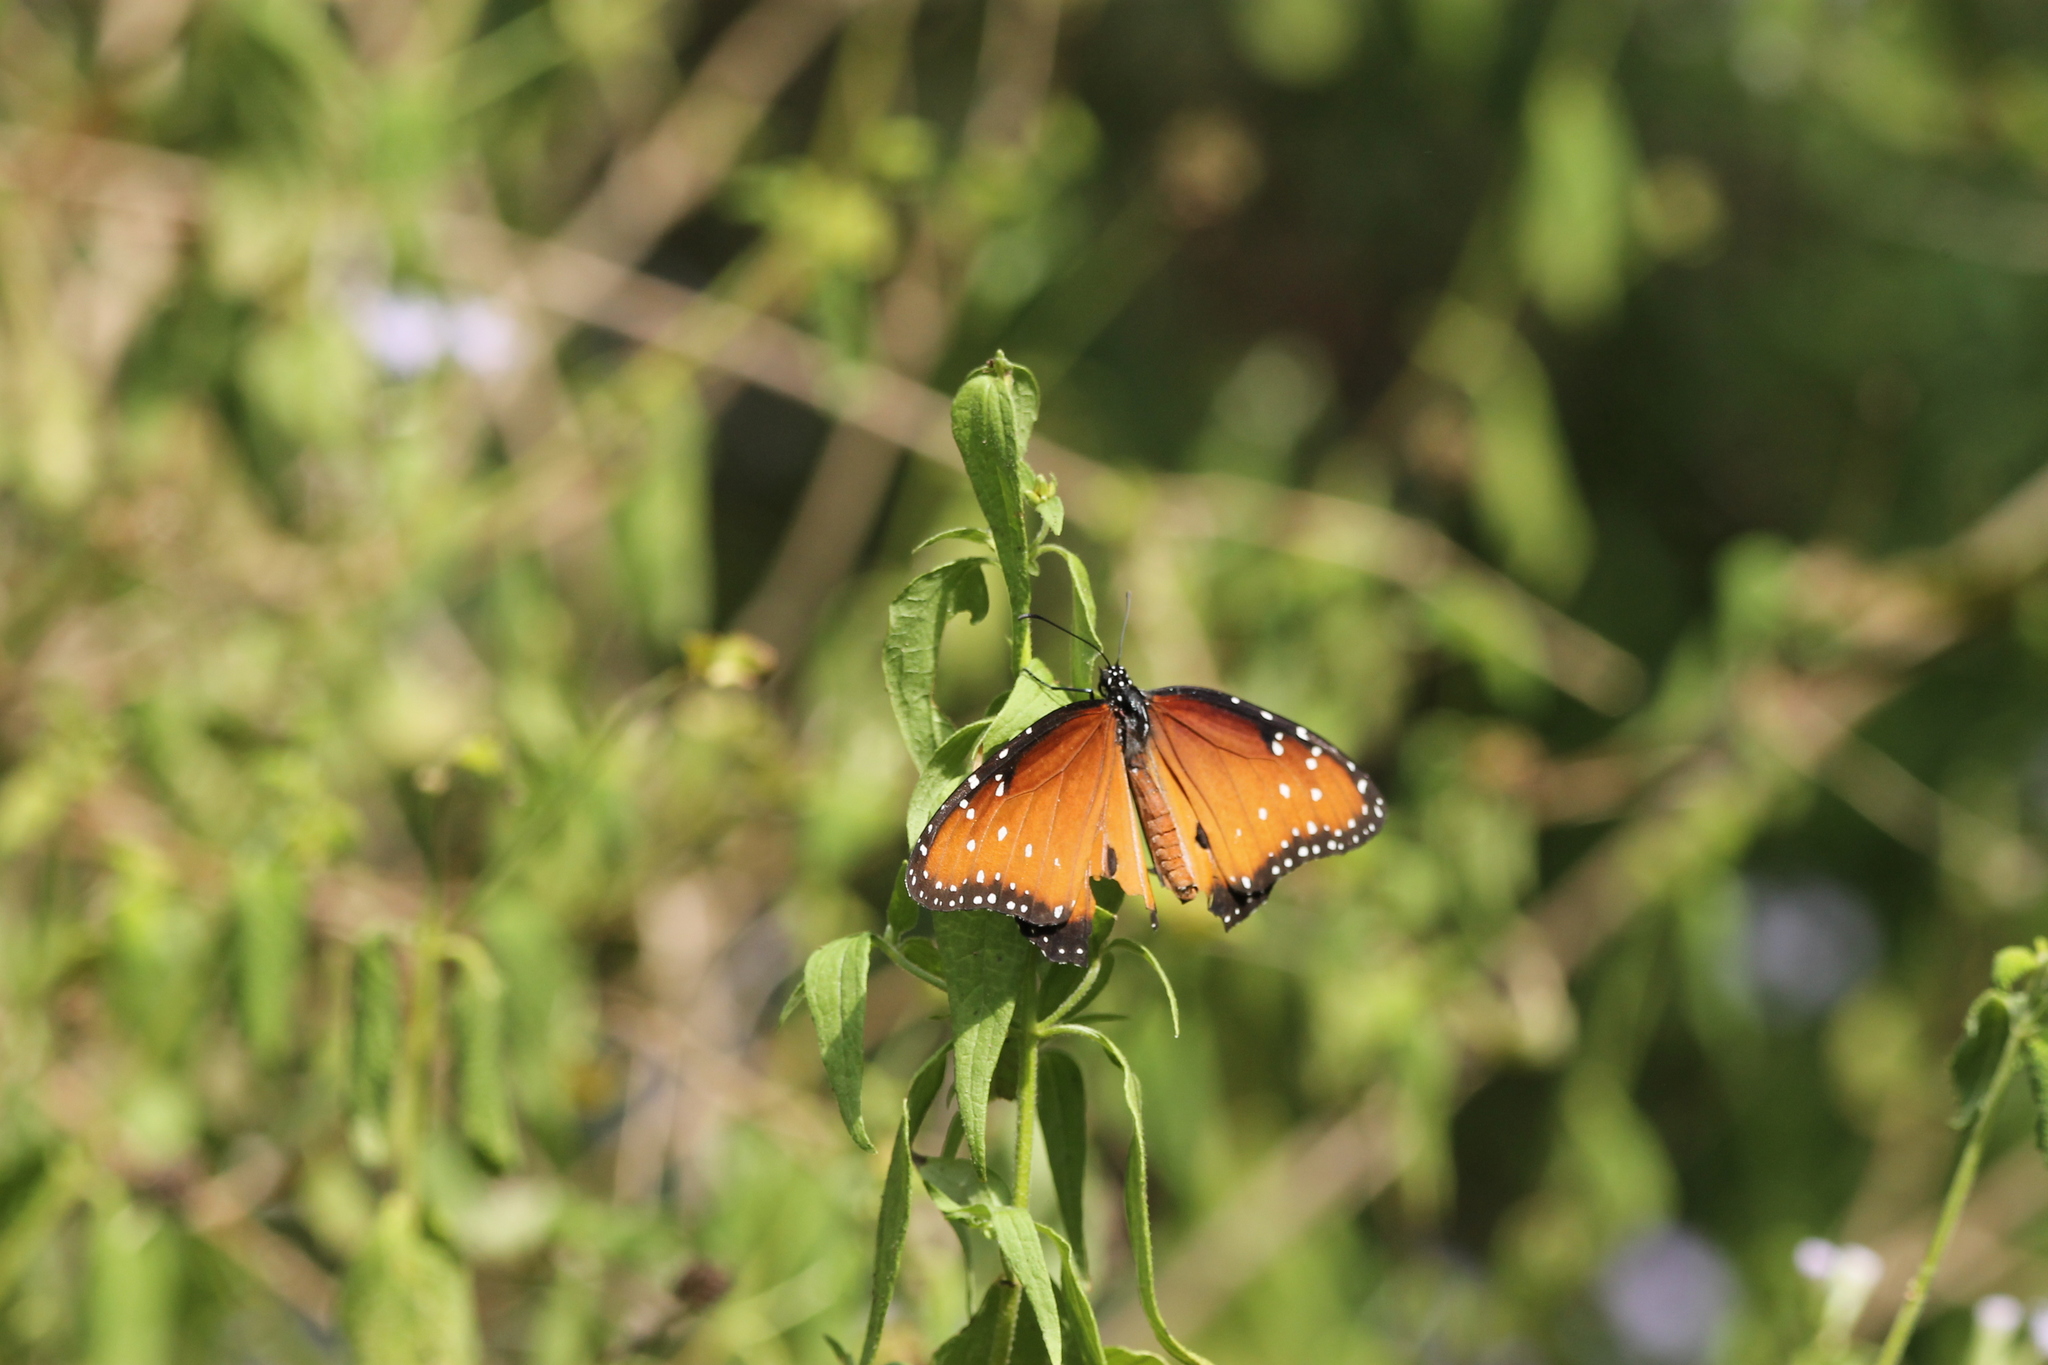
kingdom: Animalia
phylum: Arthropoda
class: Insecta
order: Lepidoptera
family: Nymphalidae
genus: Danaus
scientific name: Danaus gilippus
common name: Queen
